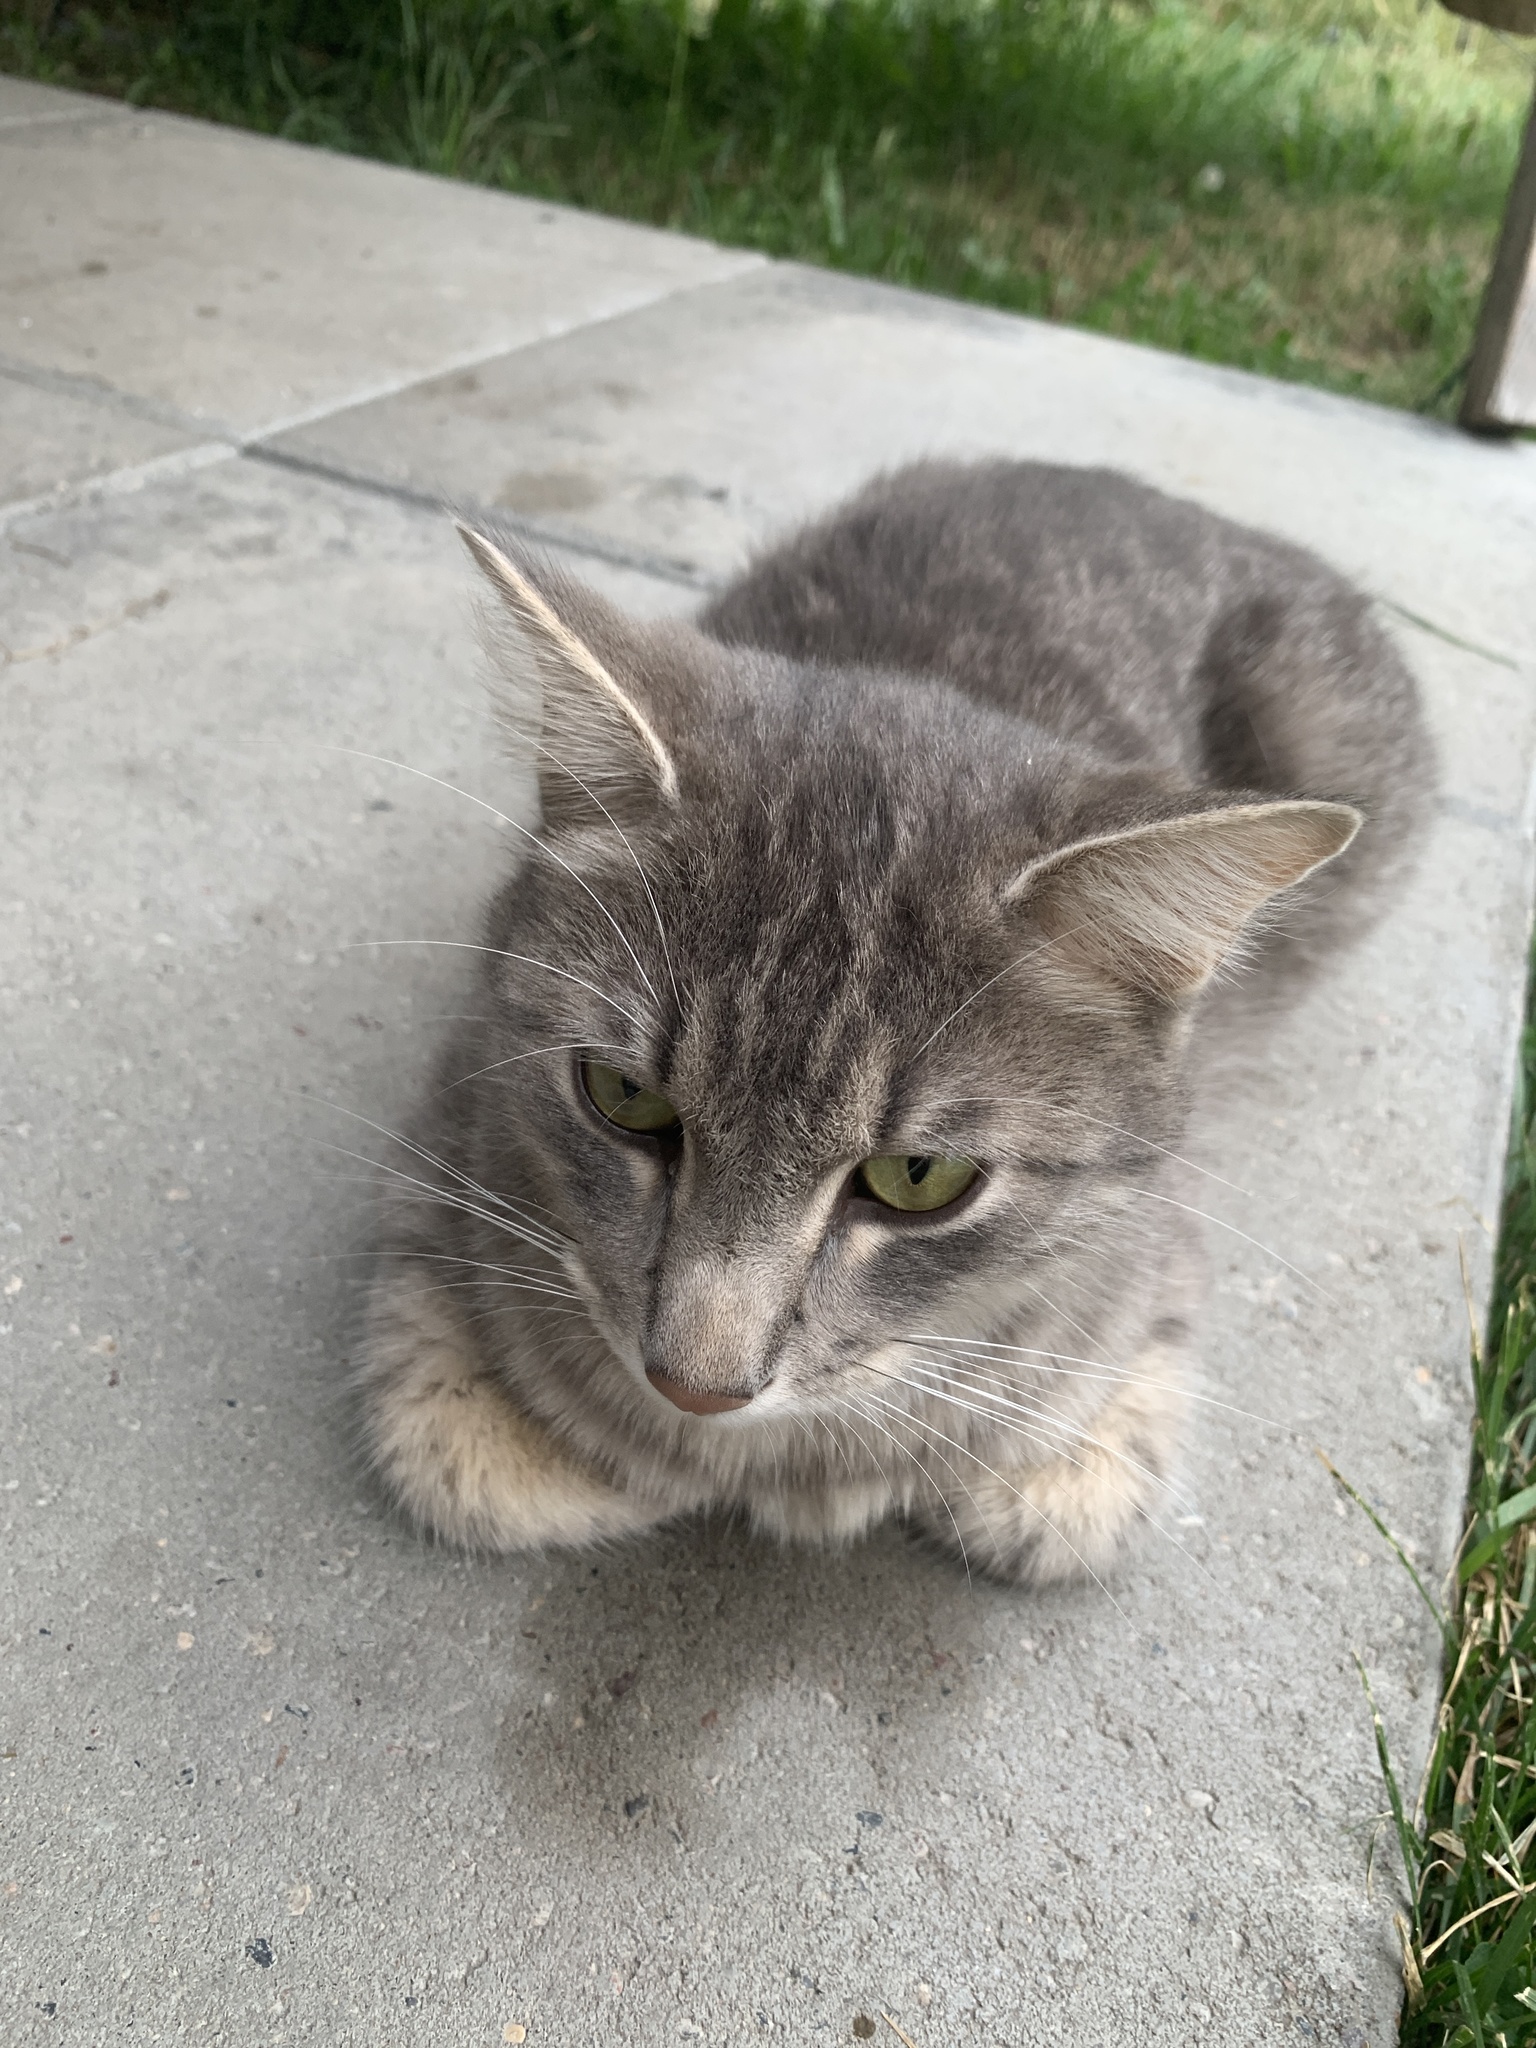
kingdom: Animalia
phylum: Chordata
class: Mammalia
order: Carnivora
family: Felidae
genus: Felis
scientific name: Felis catus
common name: Domestic cat
